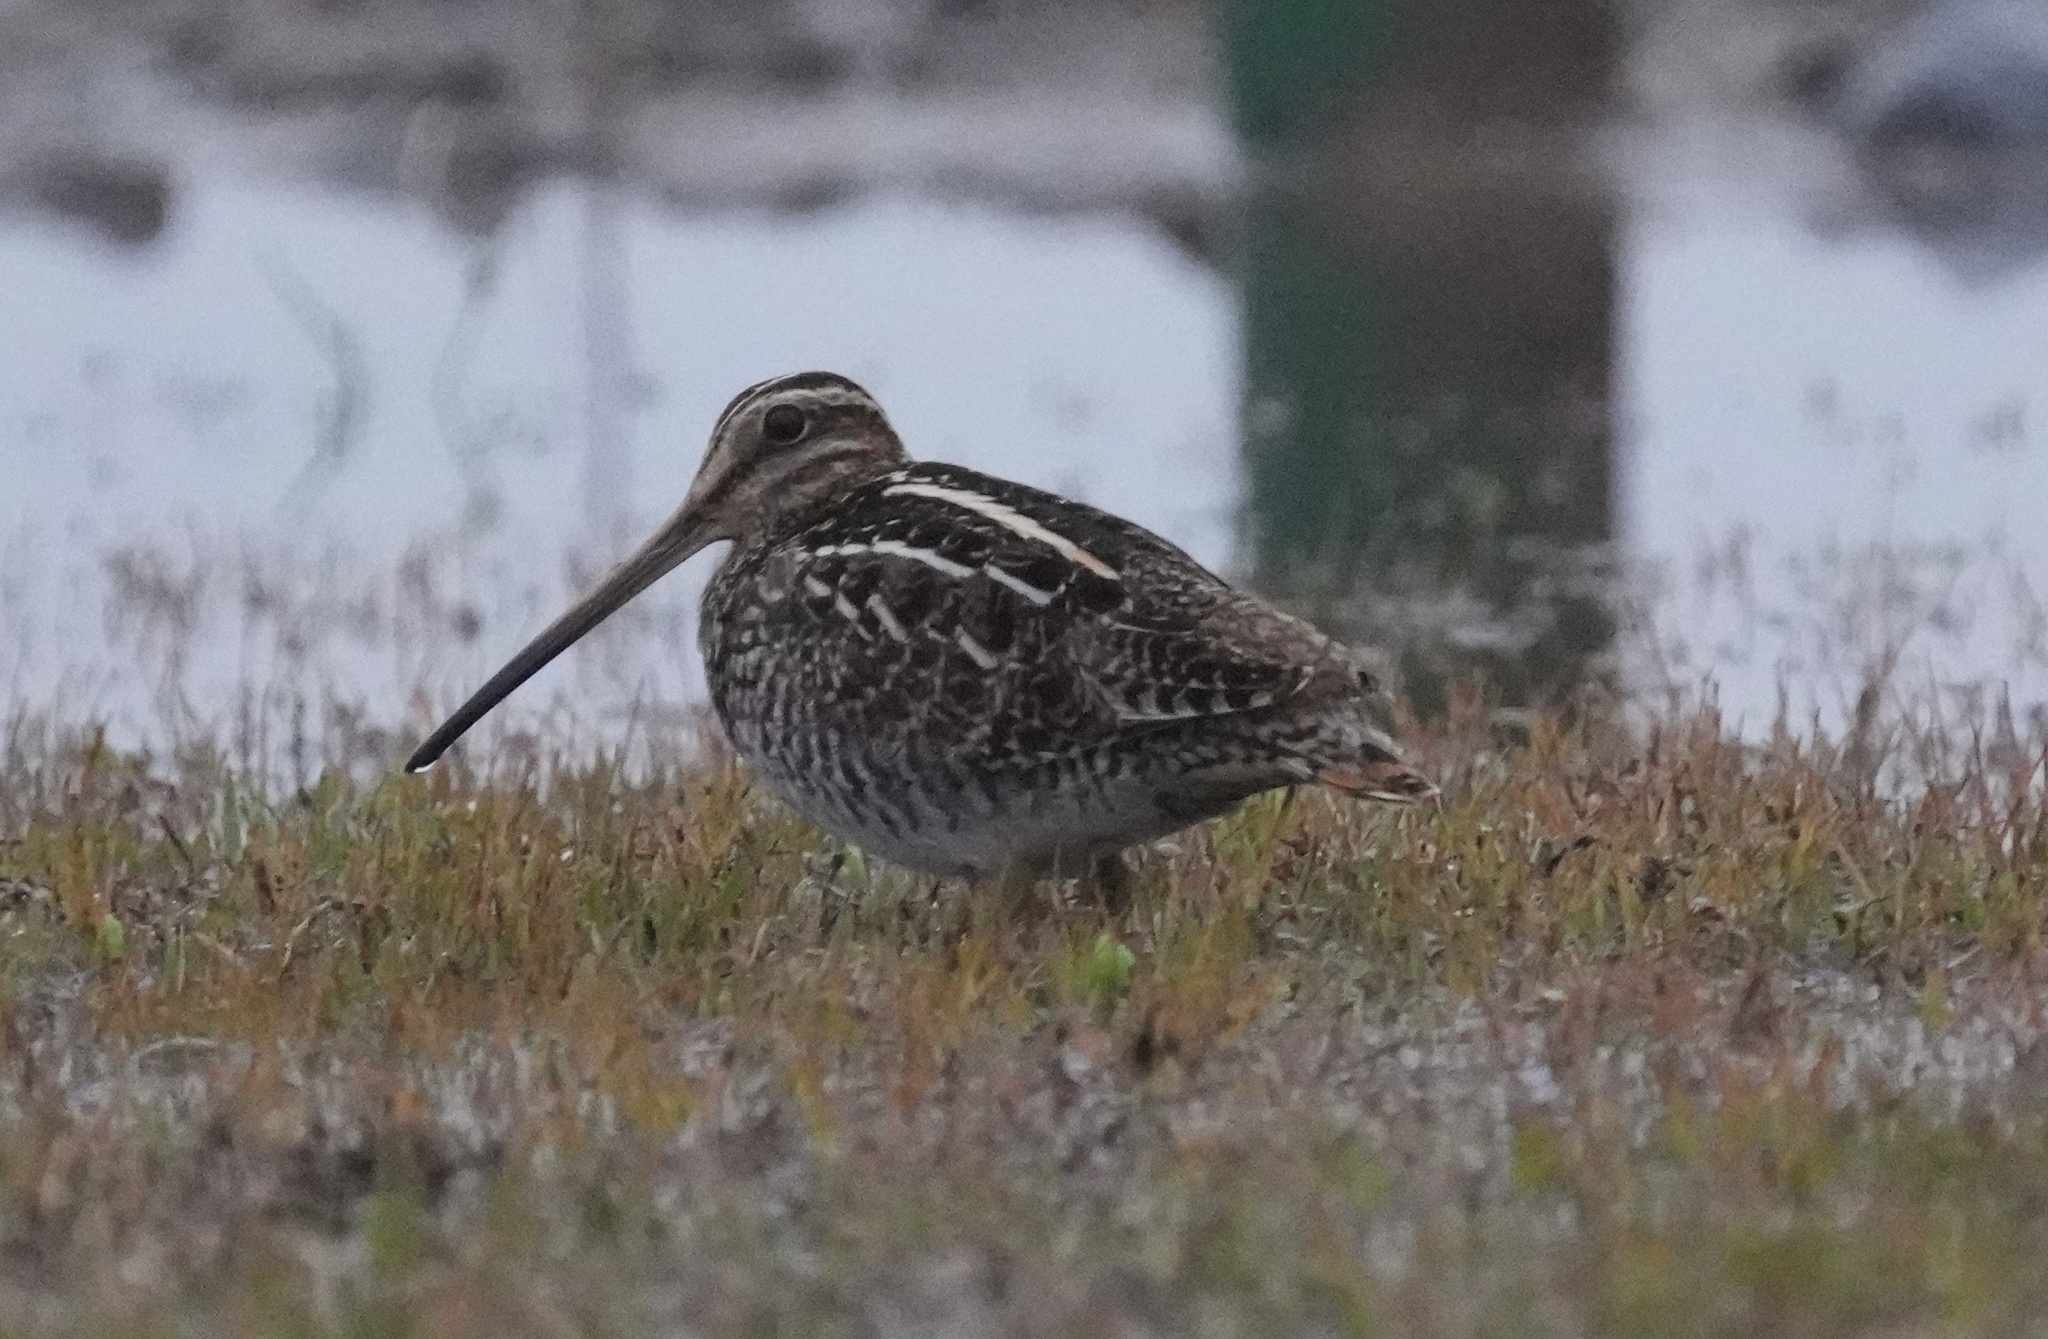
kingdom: Animalia
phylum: Chordata
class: Aves
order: Charadriiformes
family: Scolopacidae
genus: Gallinago
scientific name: Gallinago delicata
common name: Wilson's snipe
